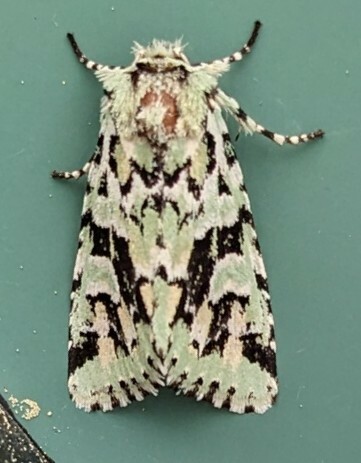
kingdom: Animalia
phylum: Arthropoda
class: Insecta
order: Lepidoptera
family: Noctuidae
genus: Feralia
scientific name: Feralia comstocki
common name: Comstock's sallow
